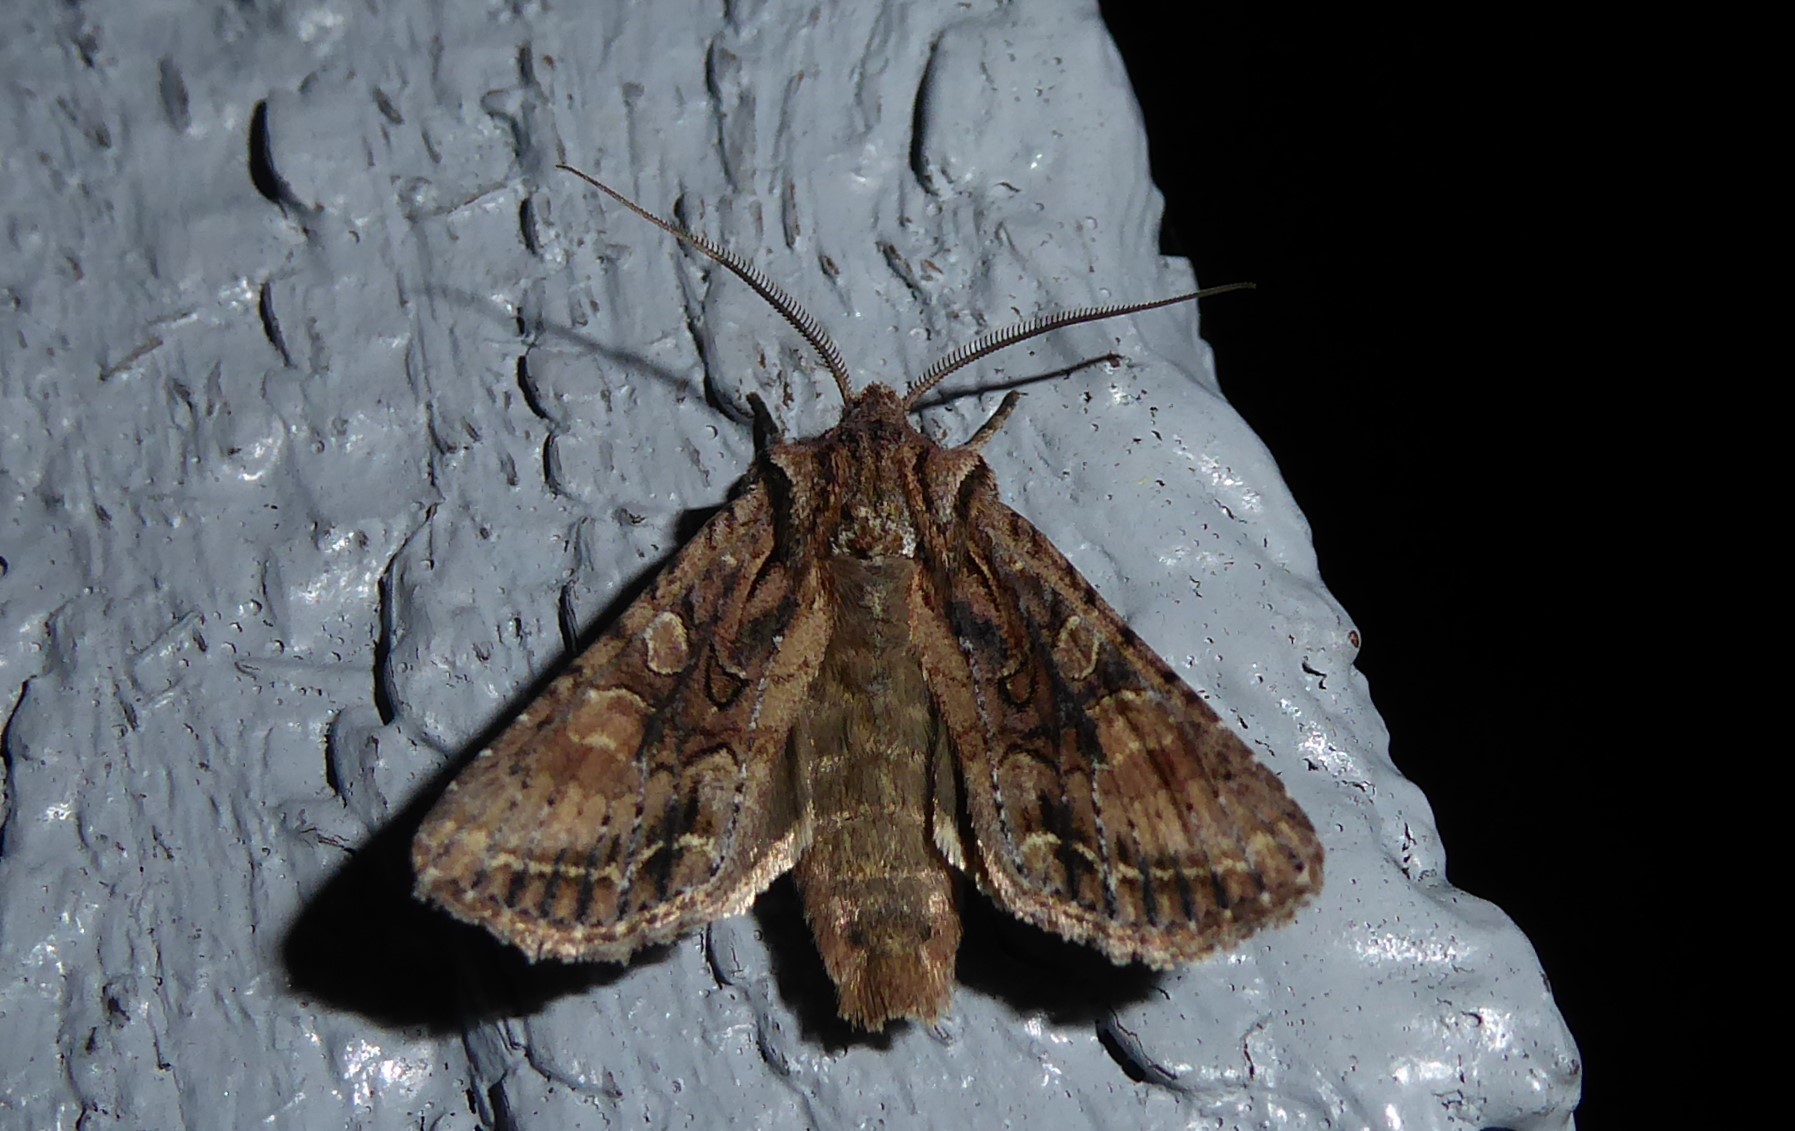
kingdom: Animalia
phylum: Arthropoda
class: Insecta
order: Lepidoptera
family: Noctuidae
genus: Ichneutica
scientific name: Ichneutica mutans
